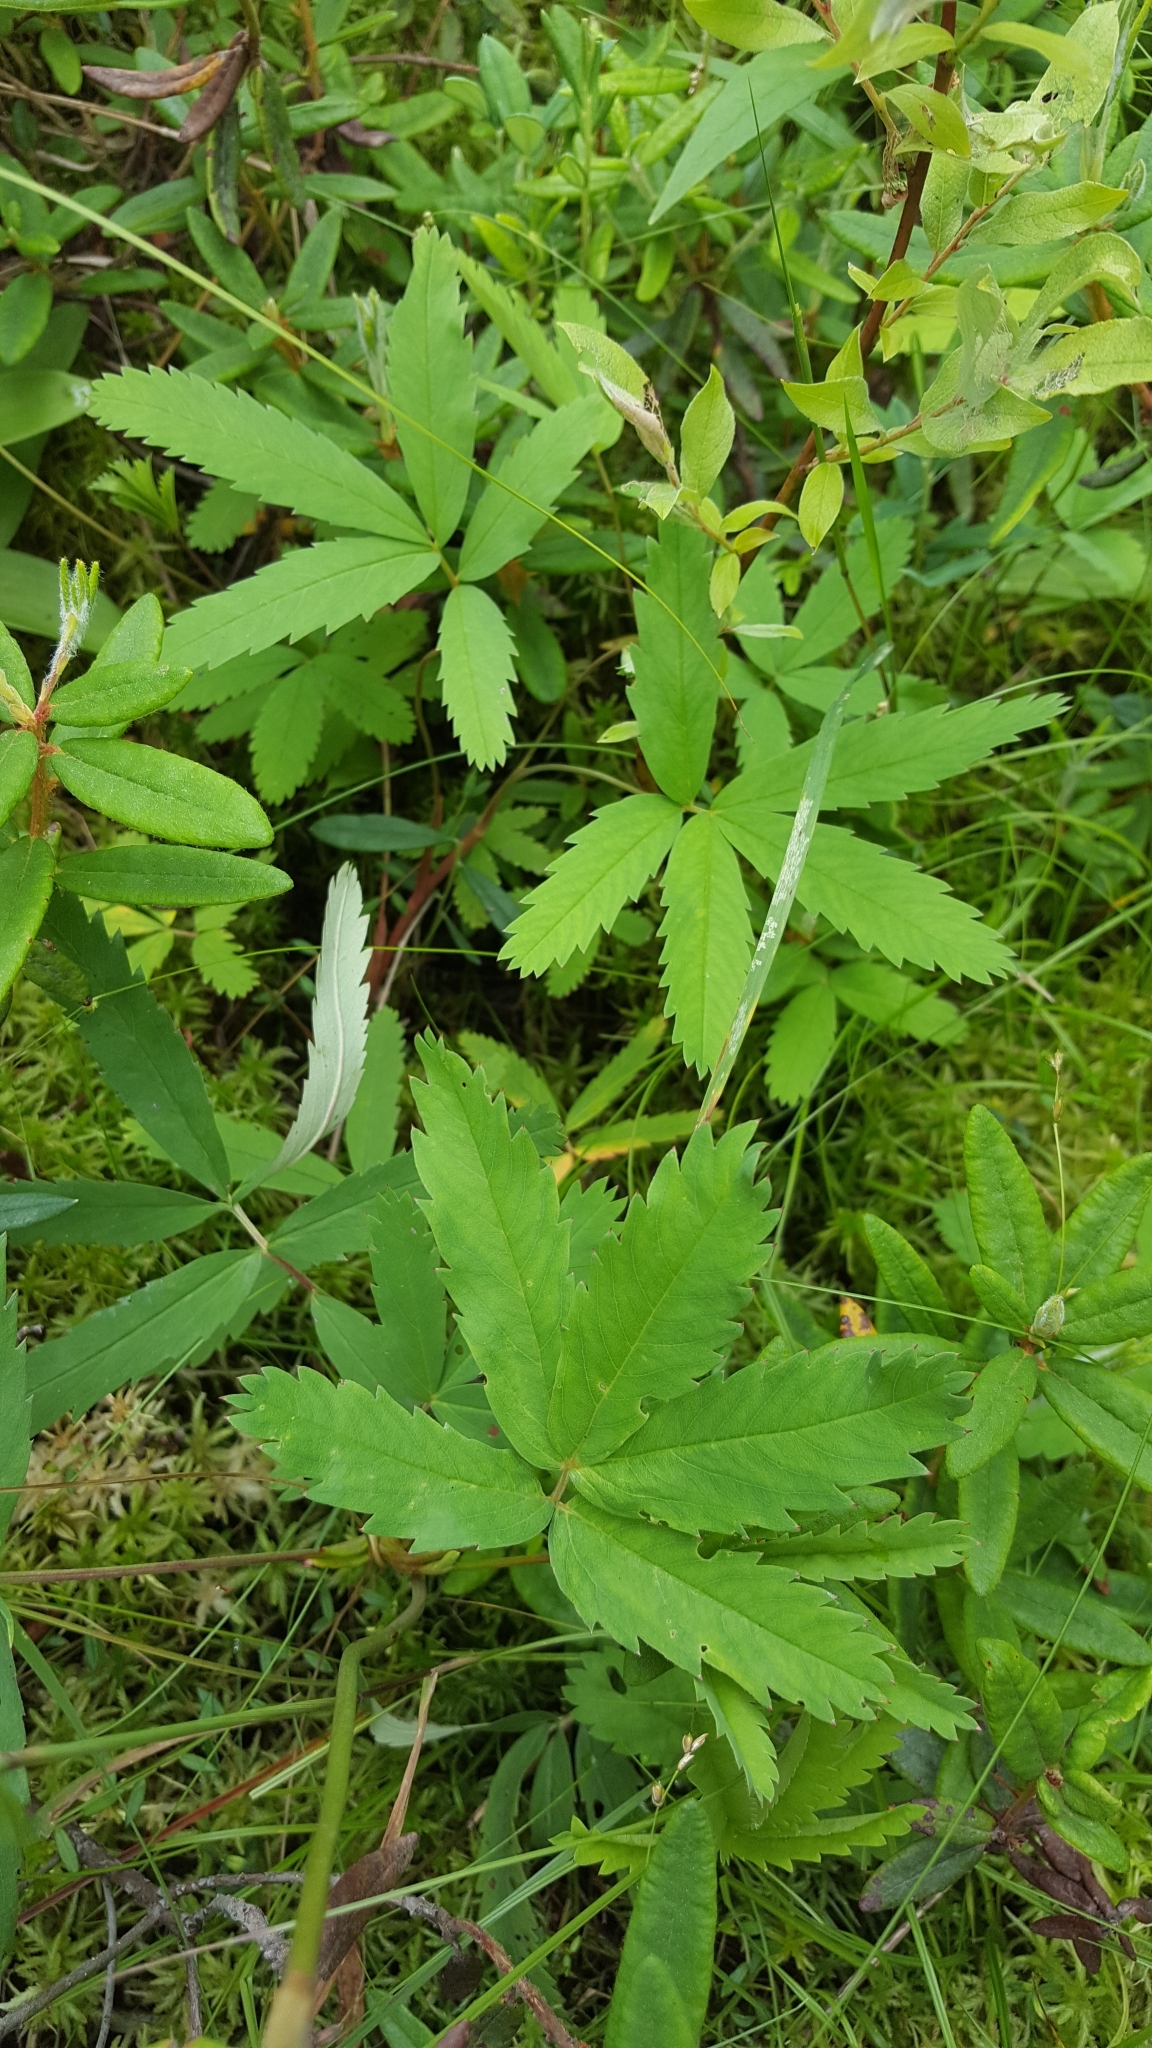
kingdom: Plantae
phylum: Tracheophyta
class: Magnoliopsida
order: Rosales
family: Rosaceae
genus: Comarum
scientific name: Comarum palustre
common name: Marsh cinquefoil
